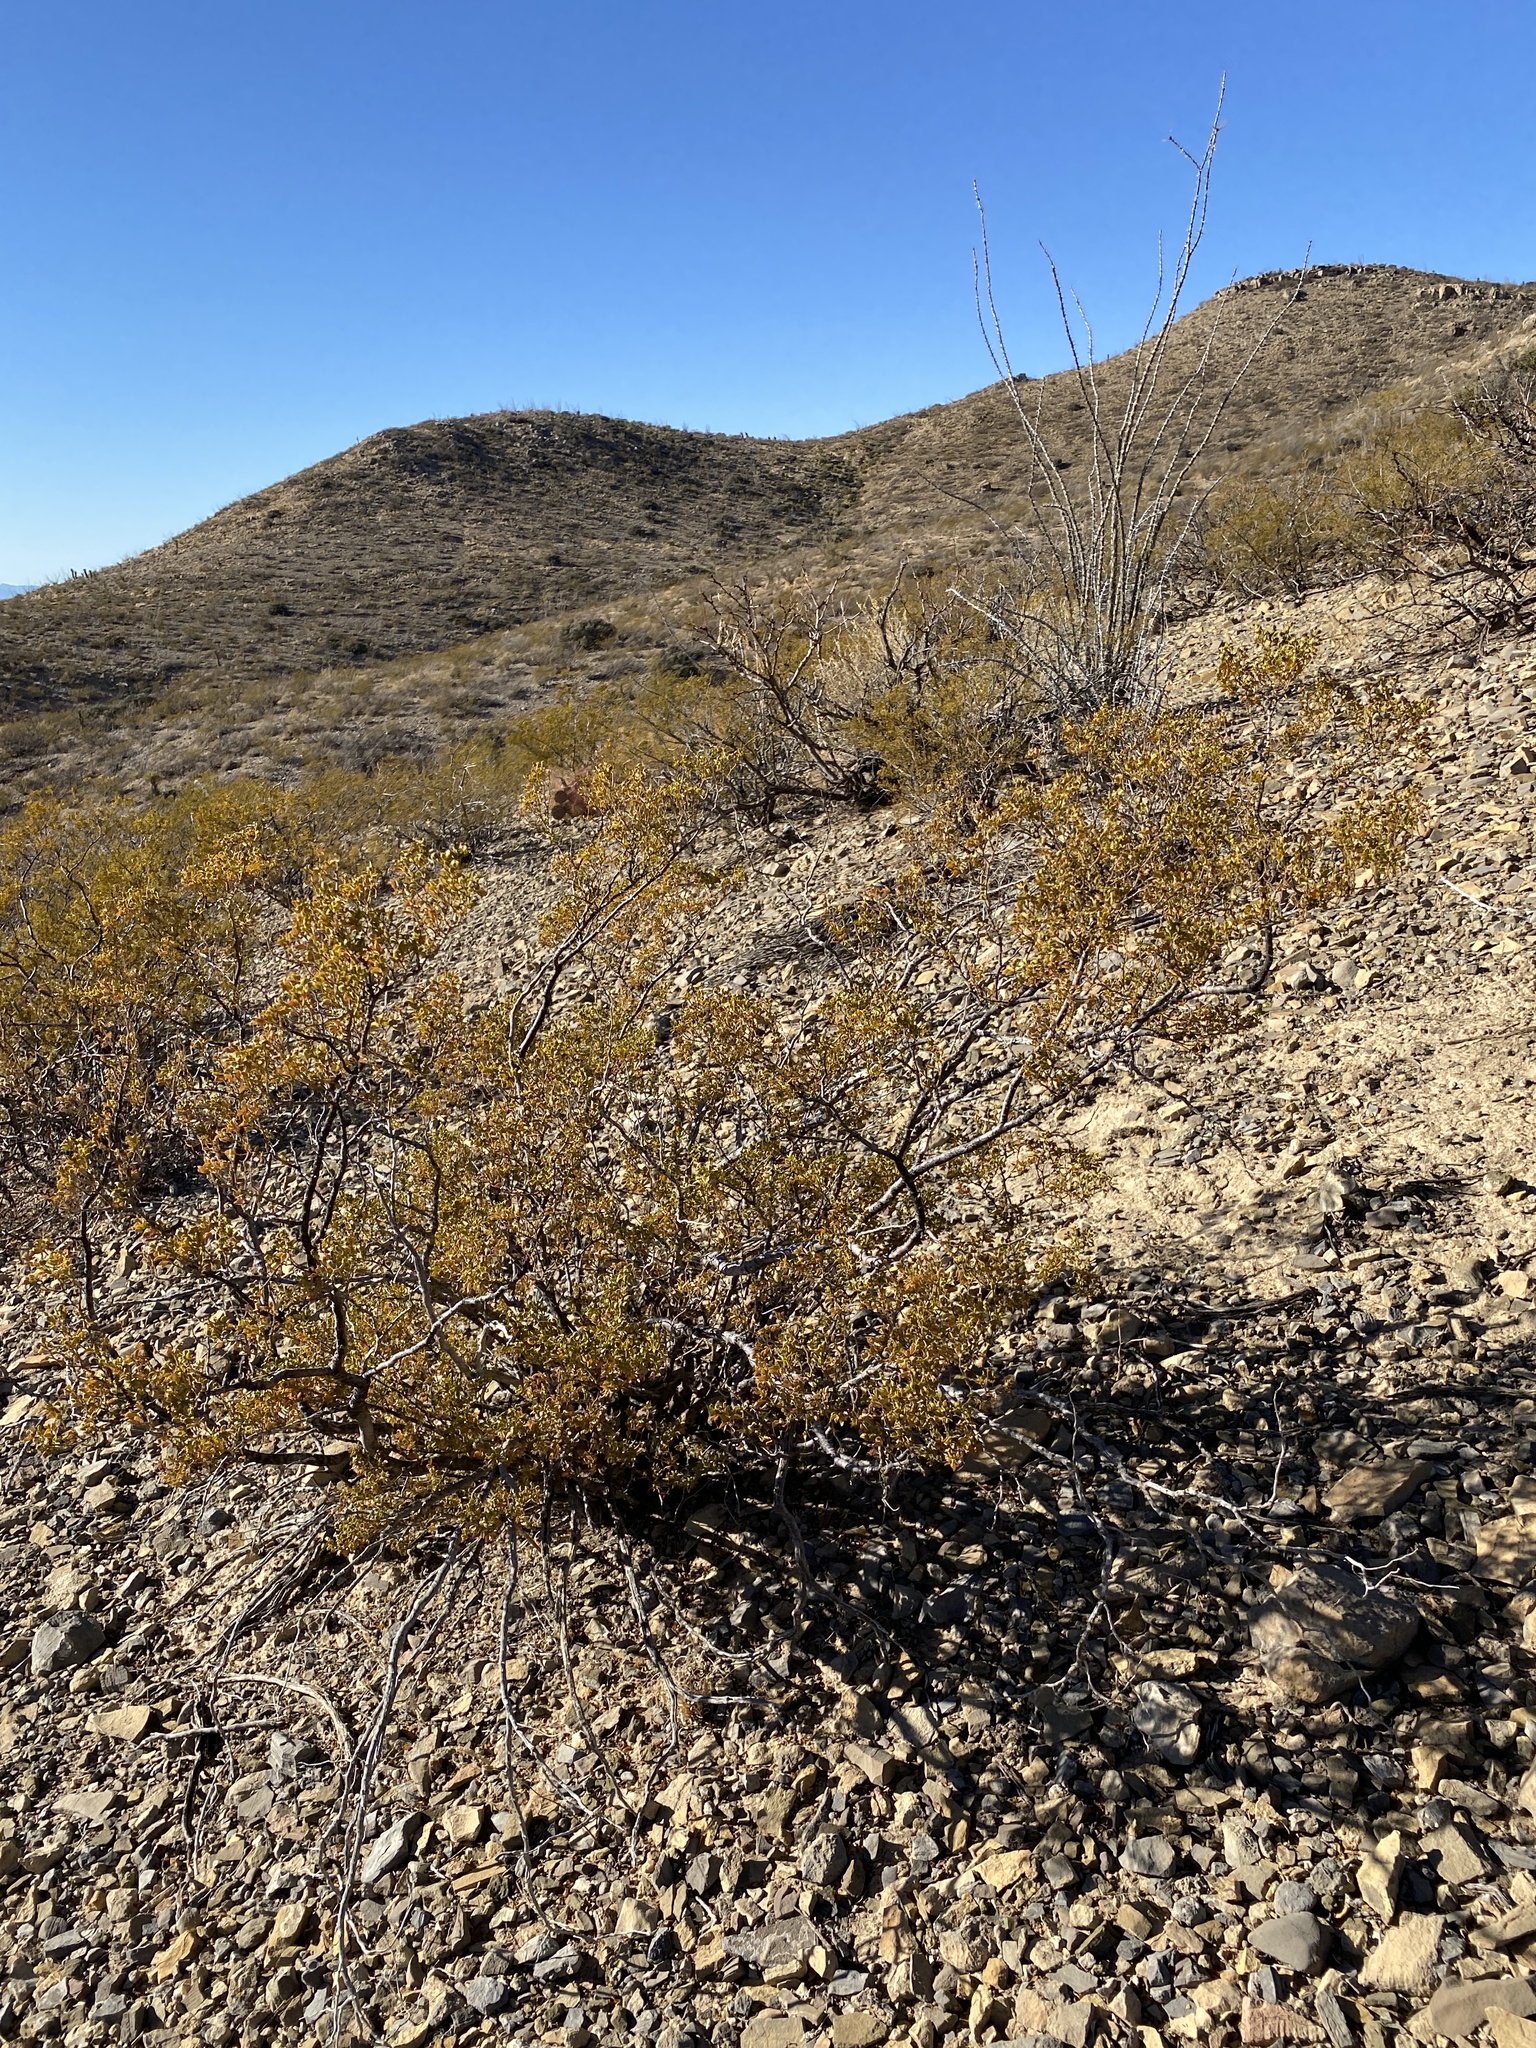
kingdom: Plantae
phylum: Tracheophyta
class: Magnoliopsida
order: Zygophyllales
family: Zygophyllaceae
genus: Larrea
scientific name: Larrea tridentata
